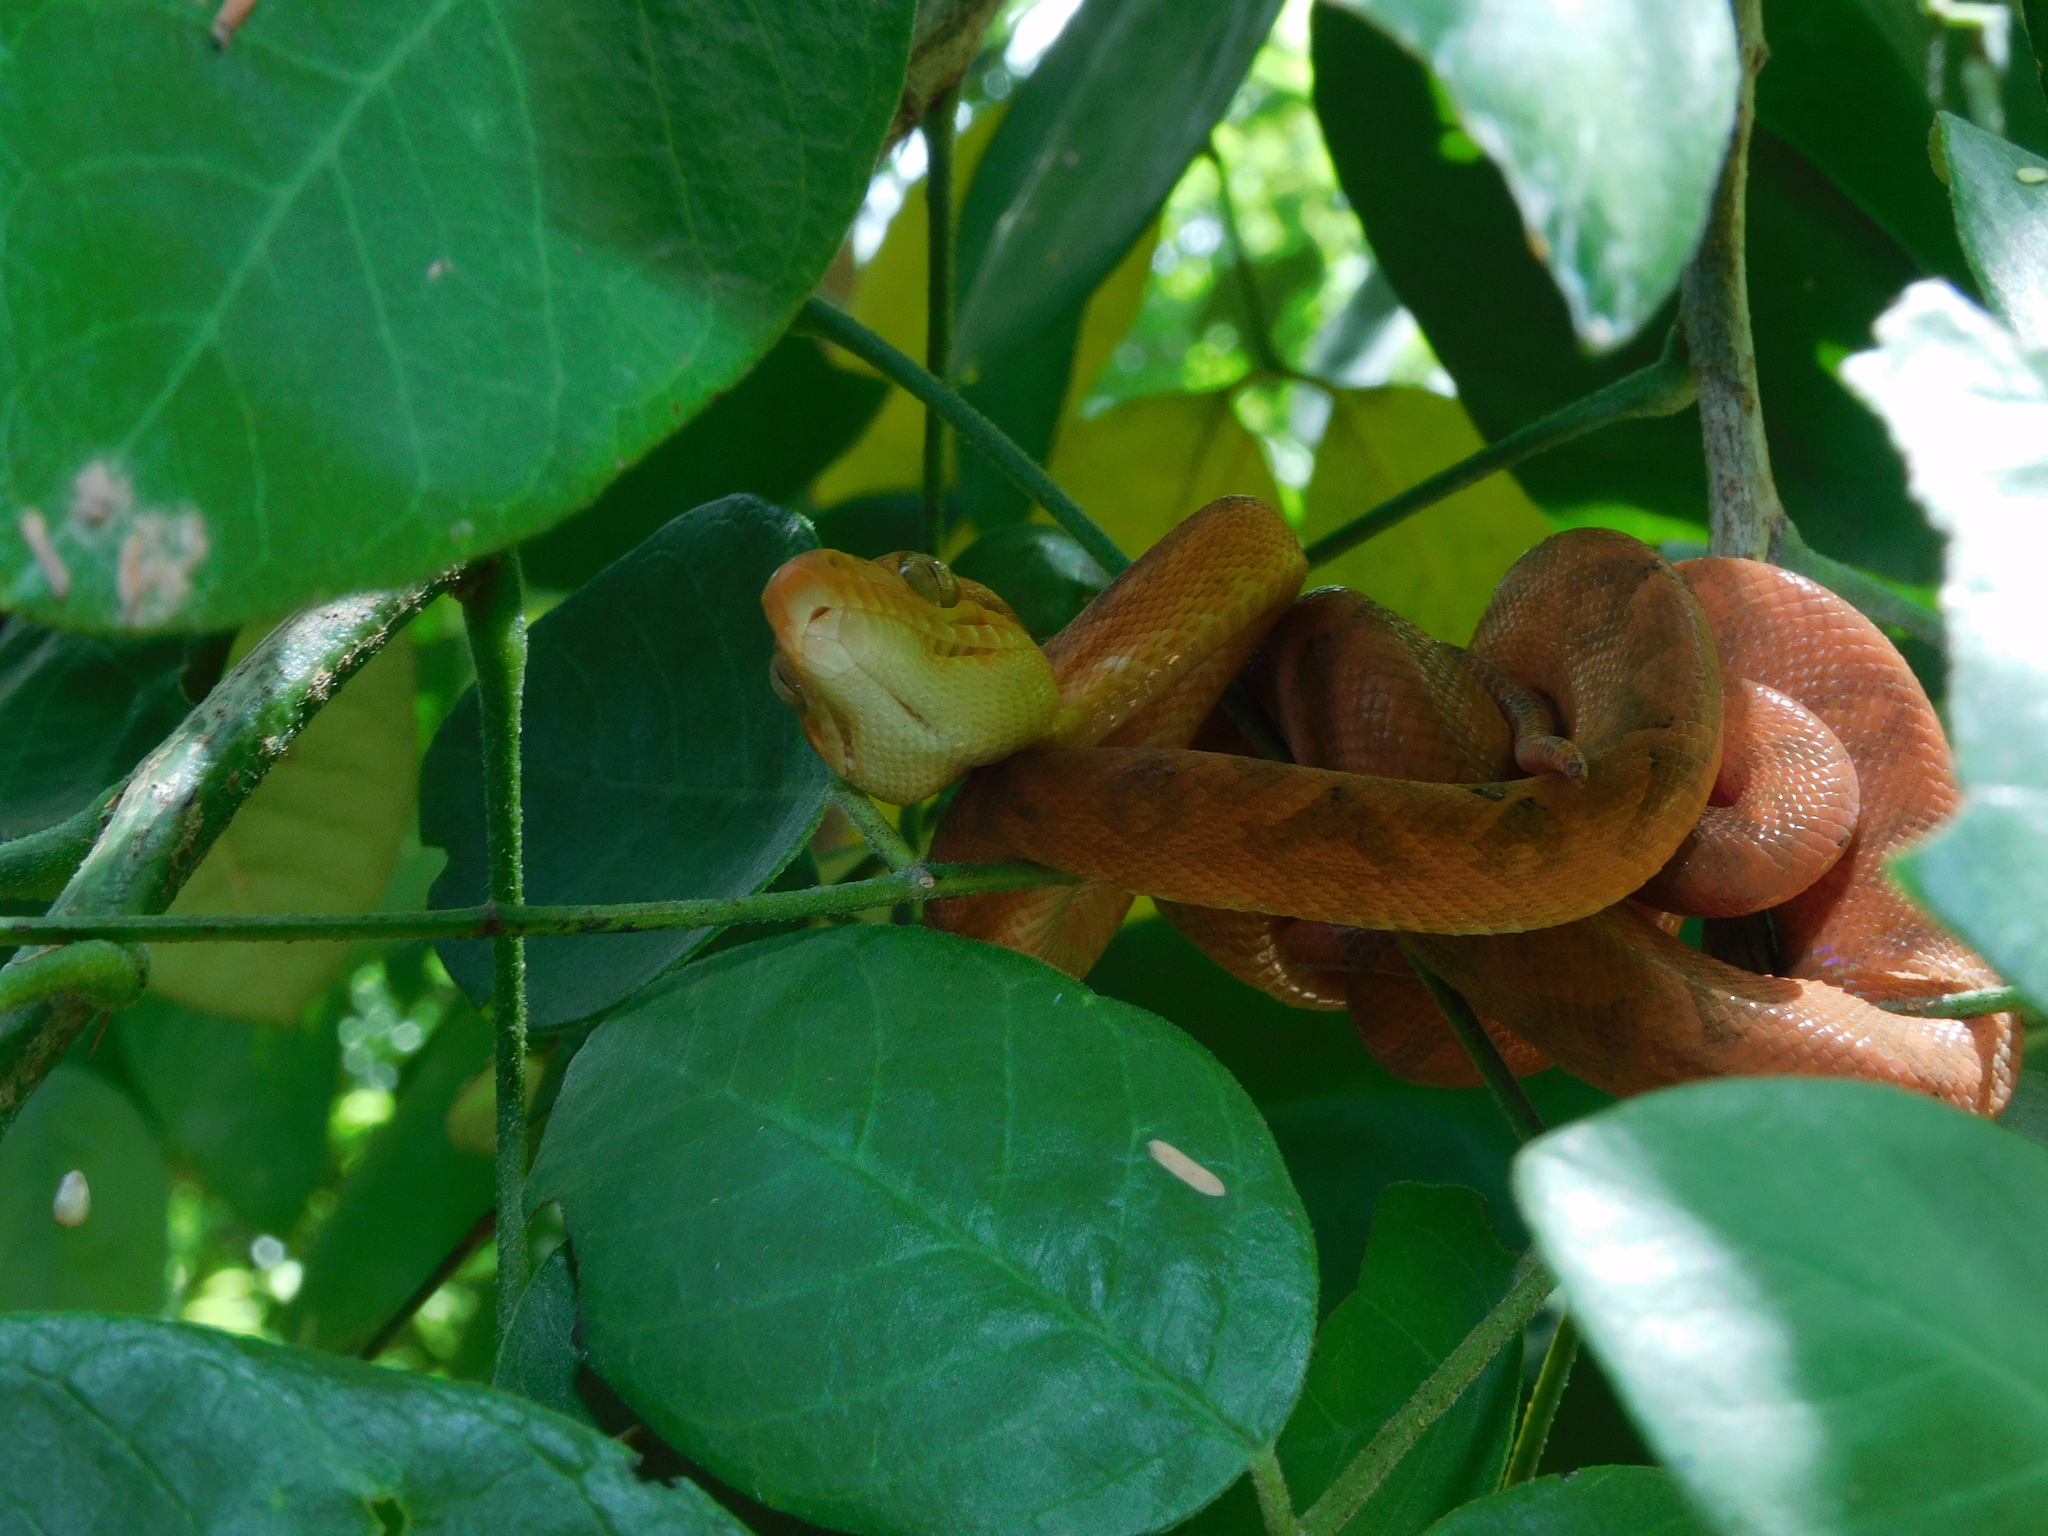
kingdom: Animalia
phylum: Chordata
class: Squamata
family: Boidae
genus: Corallus
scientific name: Corallus ruschenbergerii
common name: Dormilona
